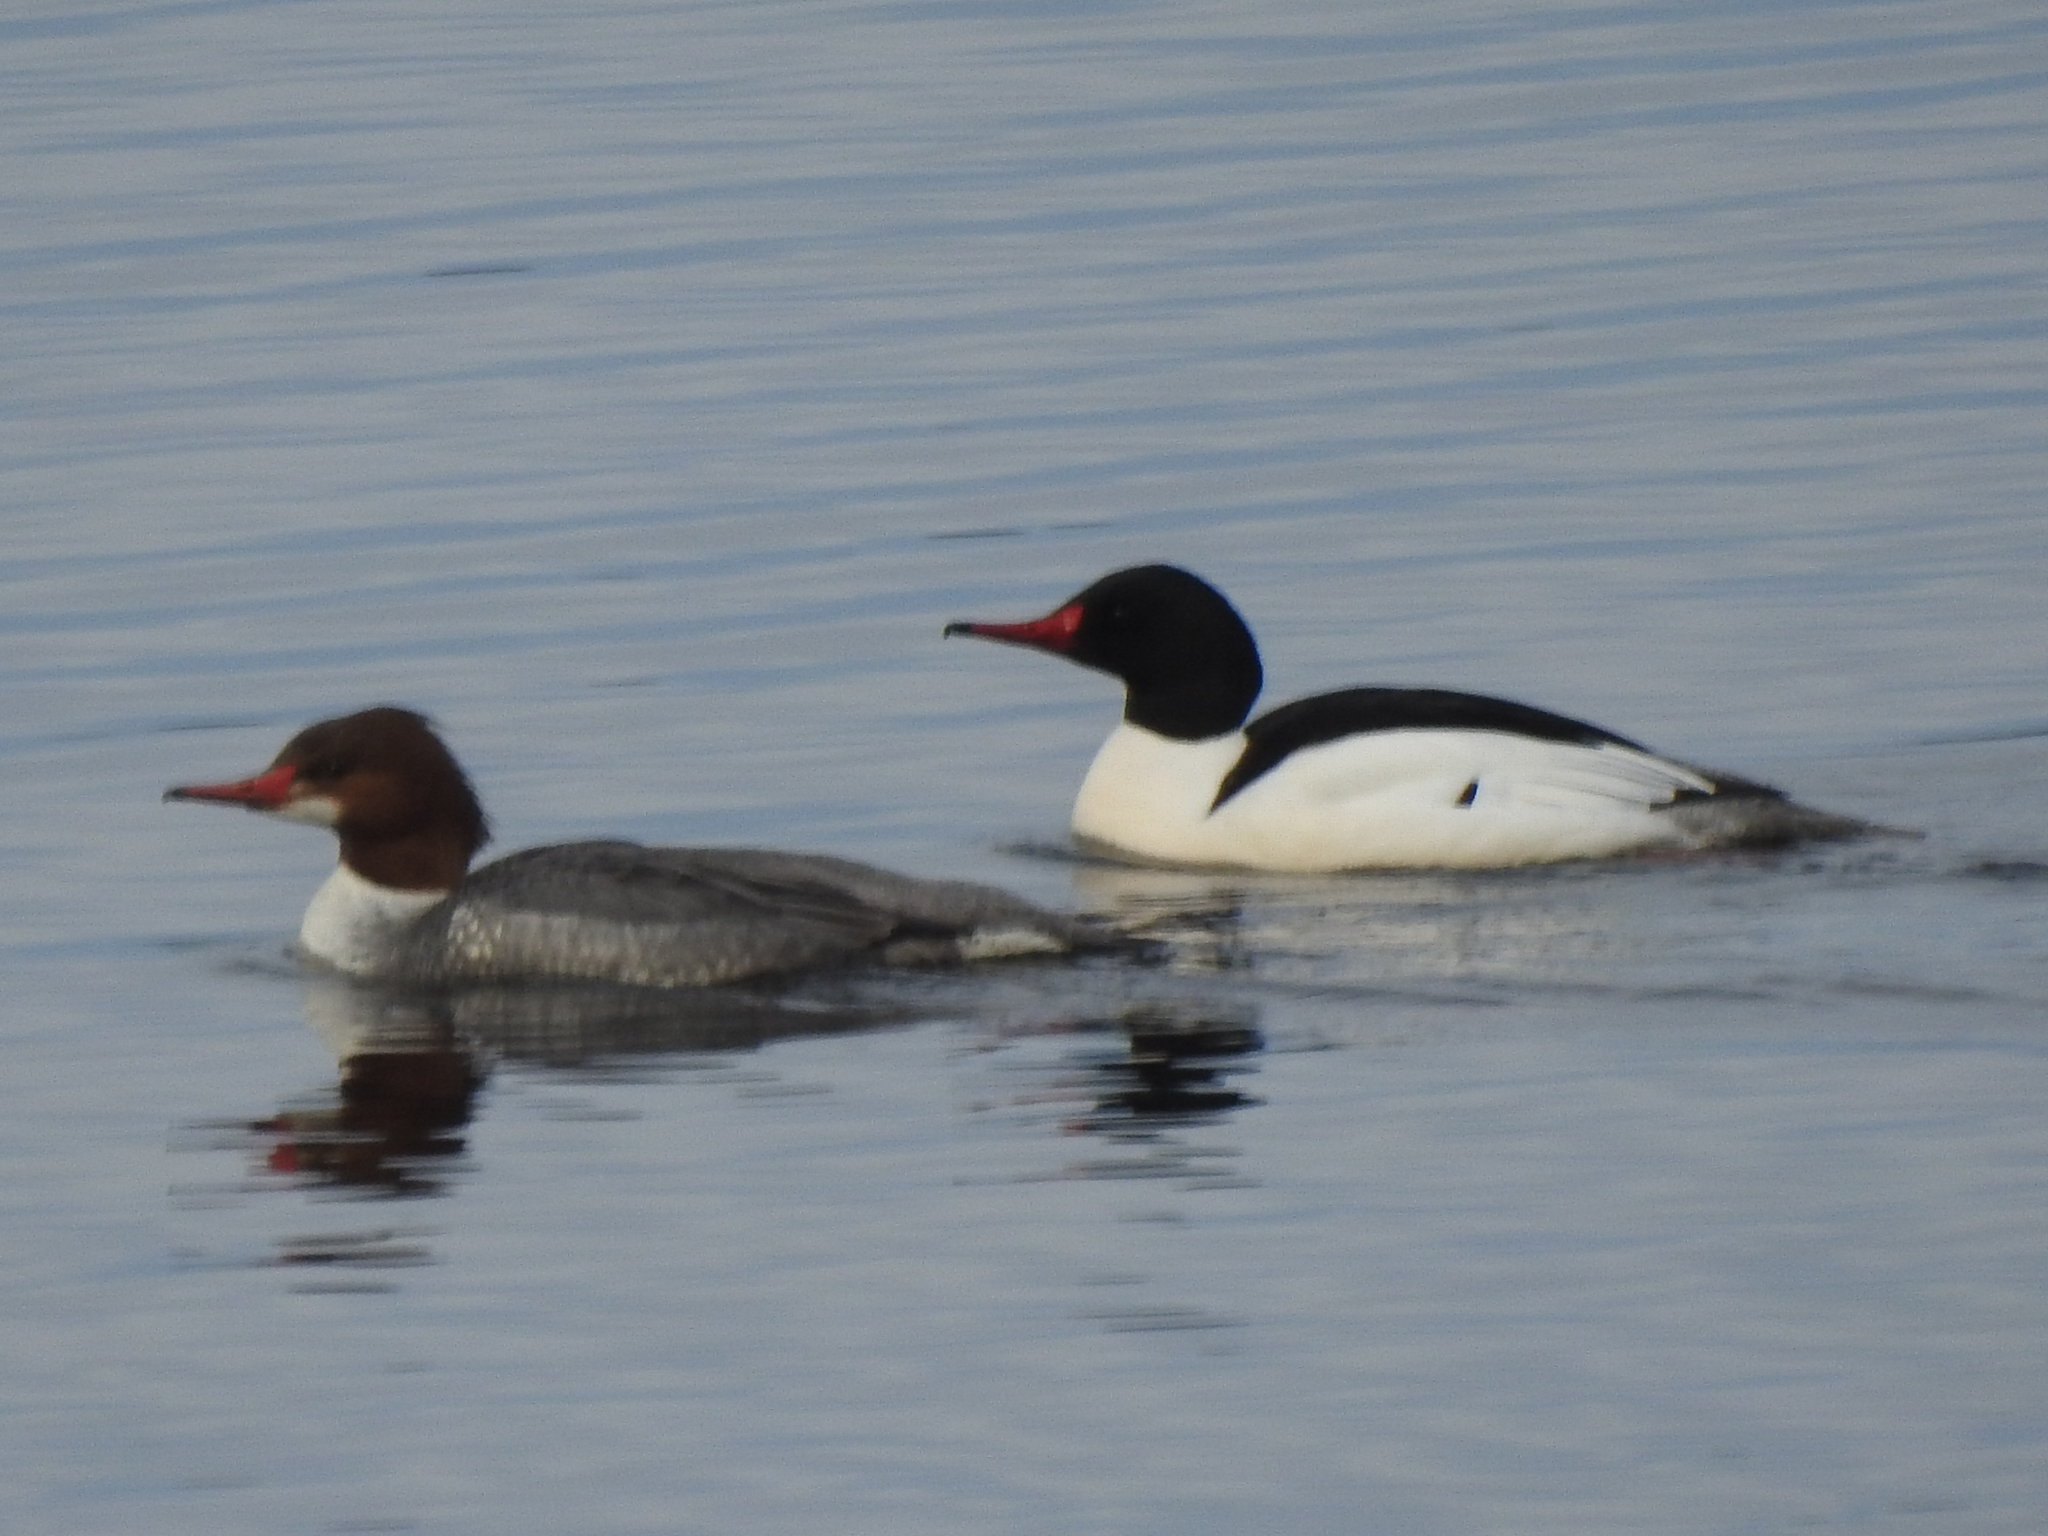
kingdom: Animalia
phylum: Chordata
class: Aves
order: Anseriformes
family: Anatidae
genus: Mergus
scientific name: Mergus merganser
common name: Common merganser
